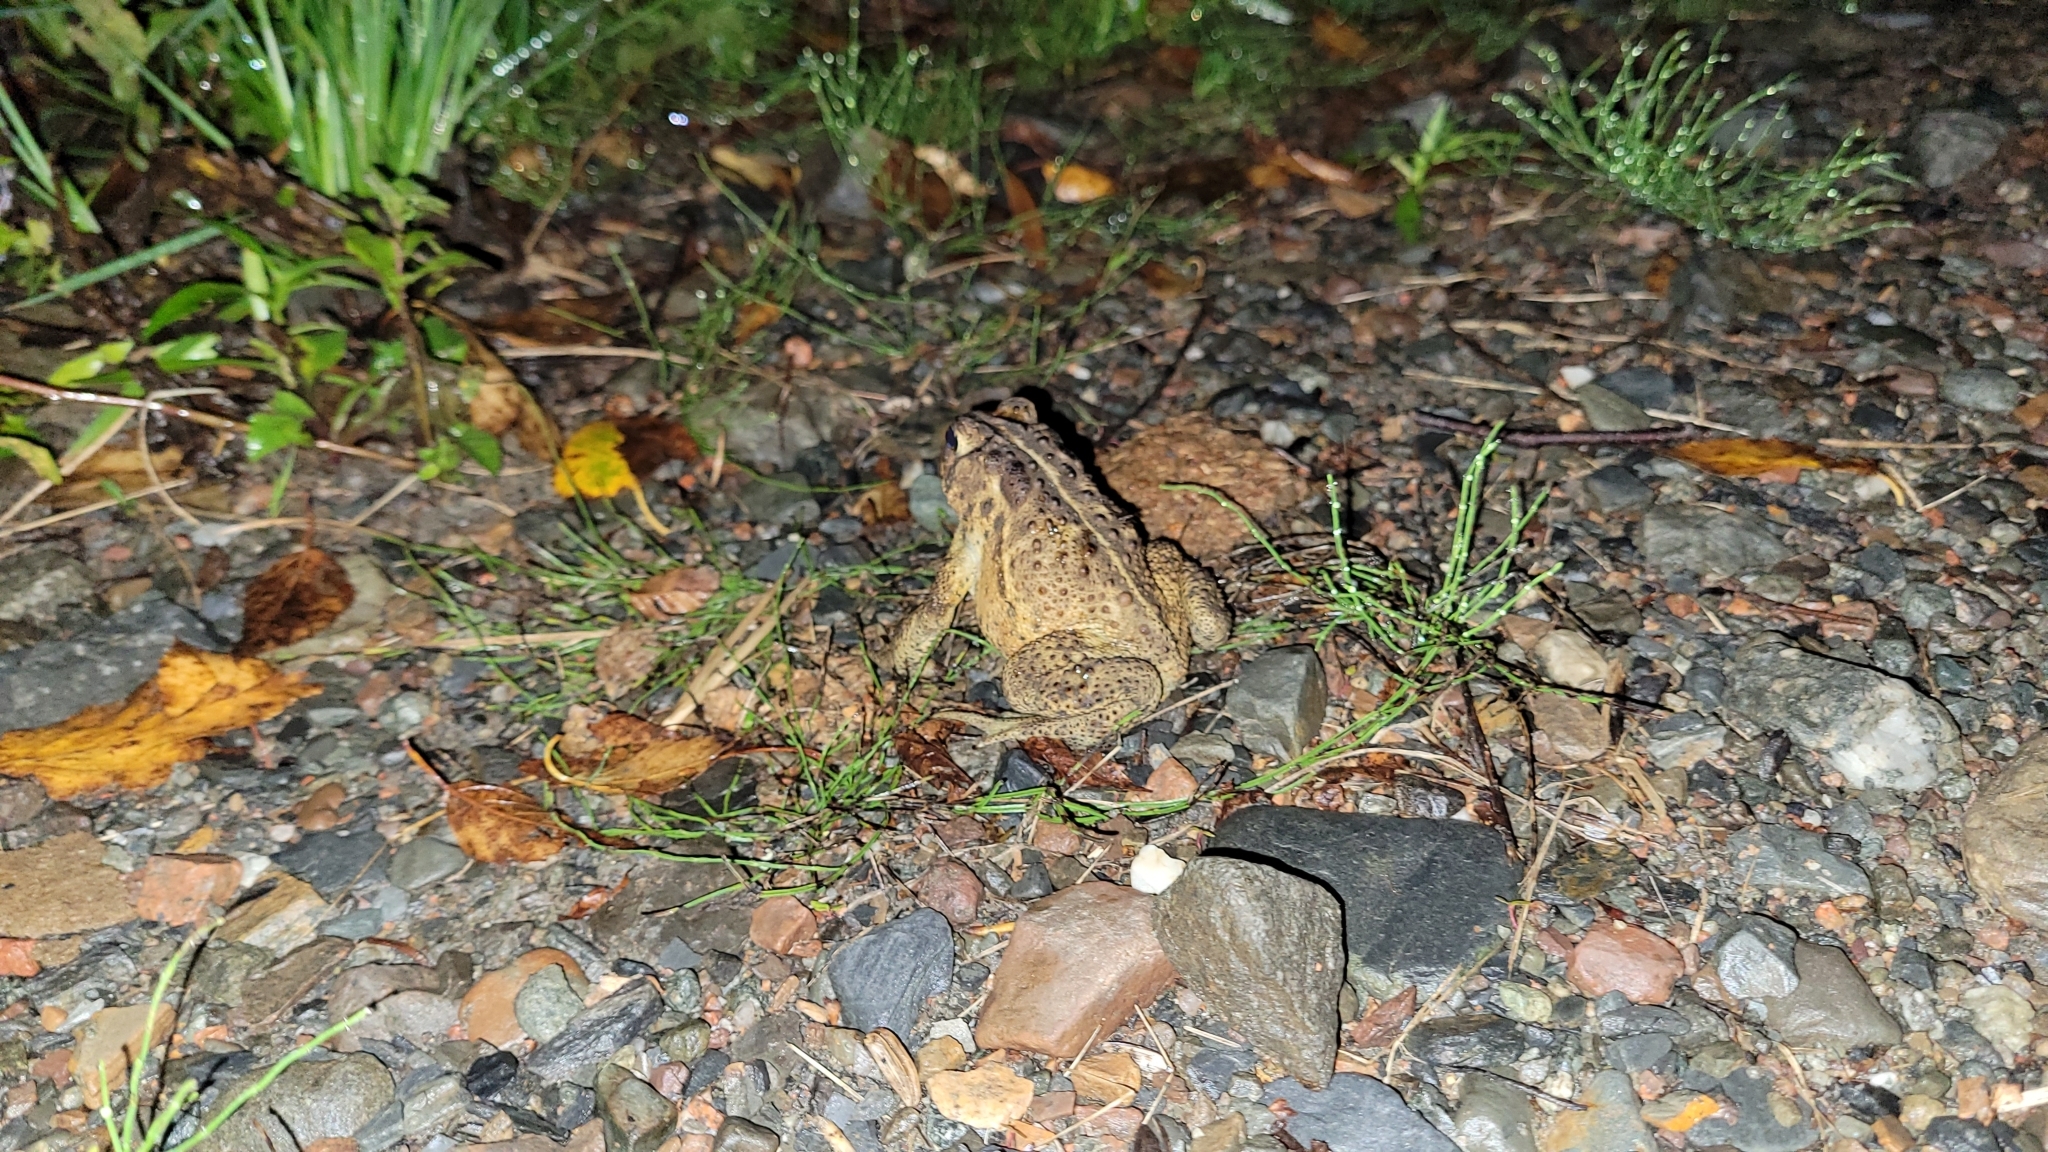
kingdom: Animalia
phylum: Chordata
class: Amphibia
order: Anura
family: Bufonidae
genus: Anaxyrus
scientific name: Anaxyrus americanus
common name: American toad
